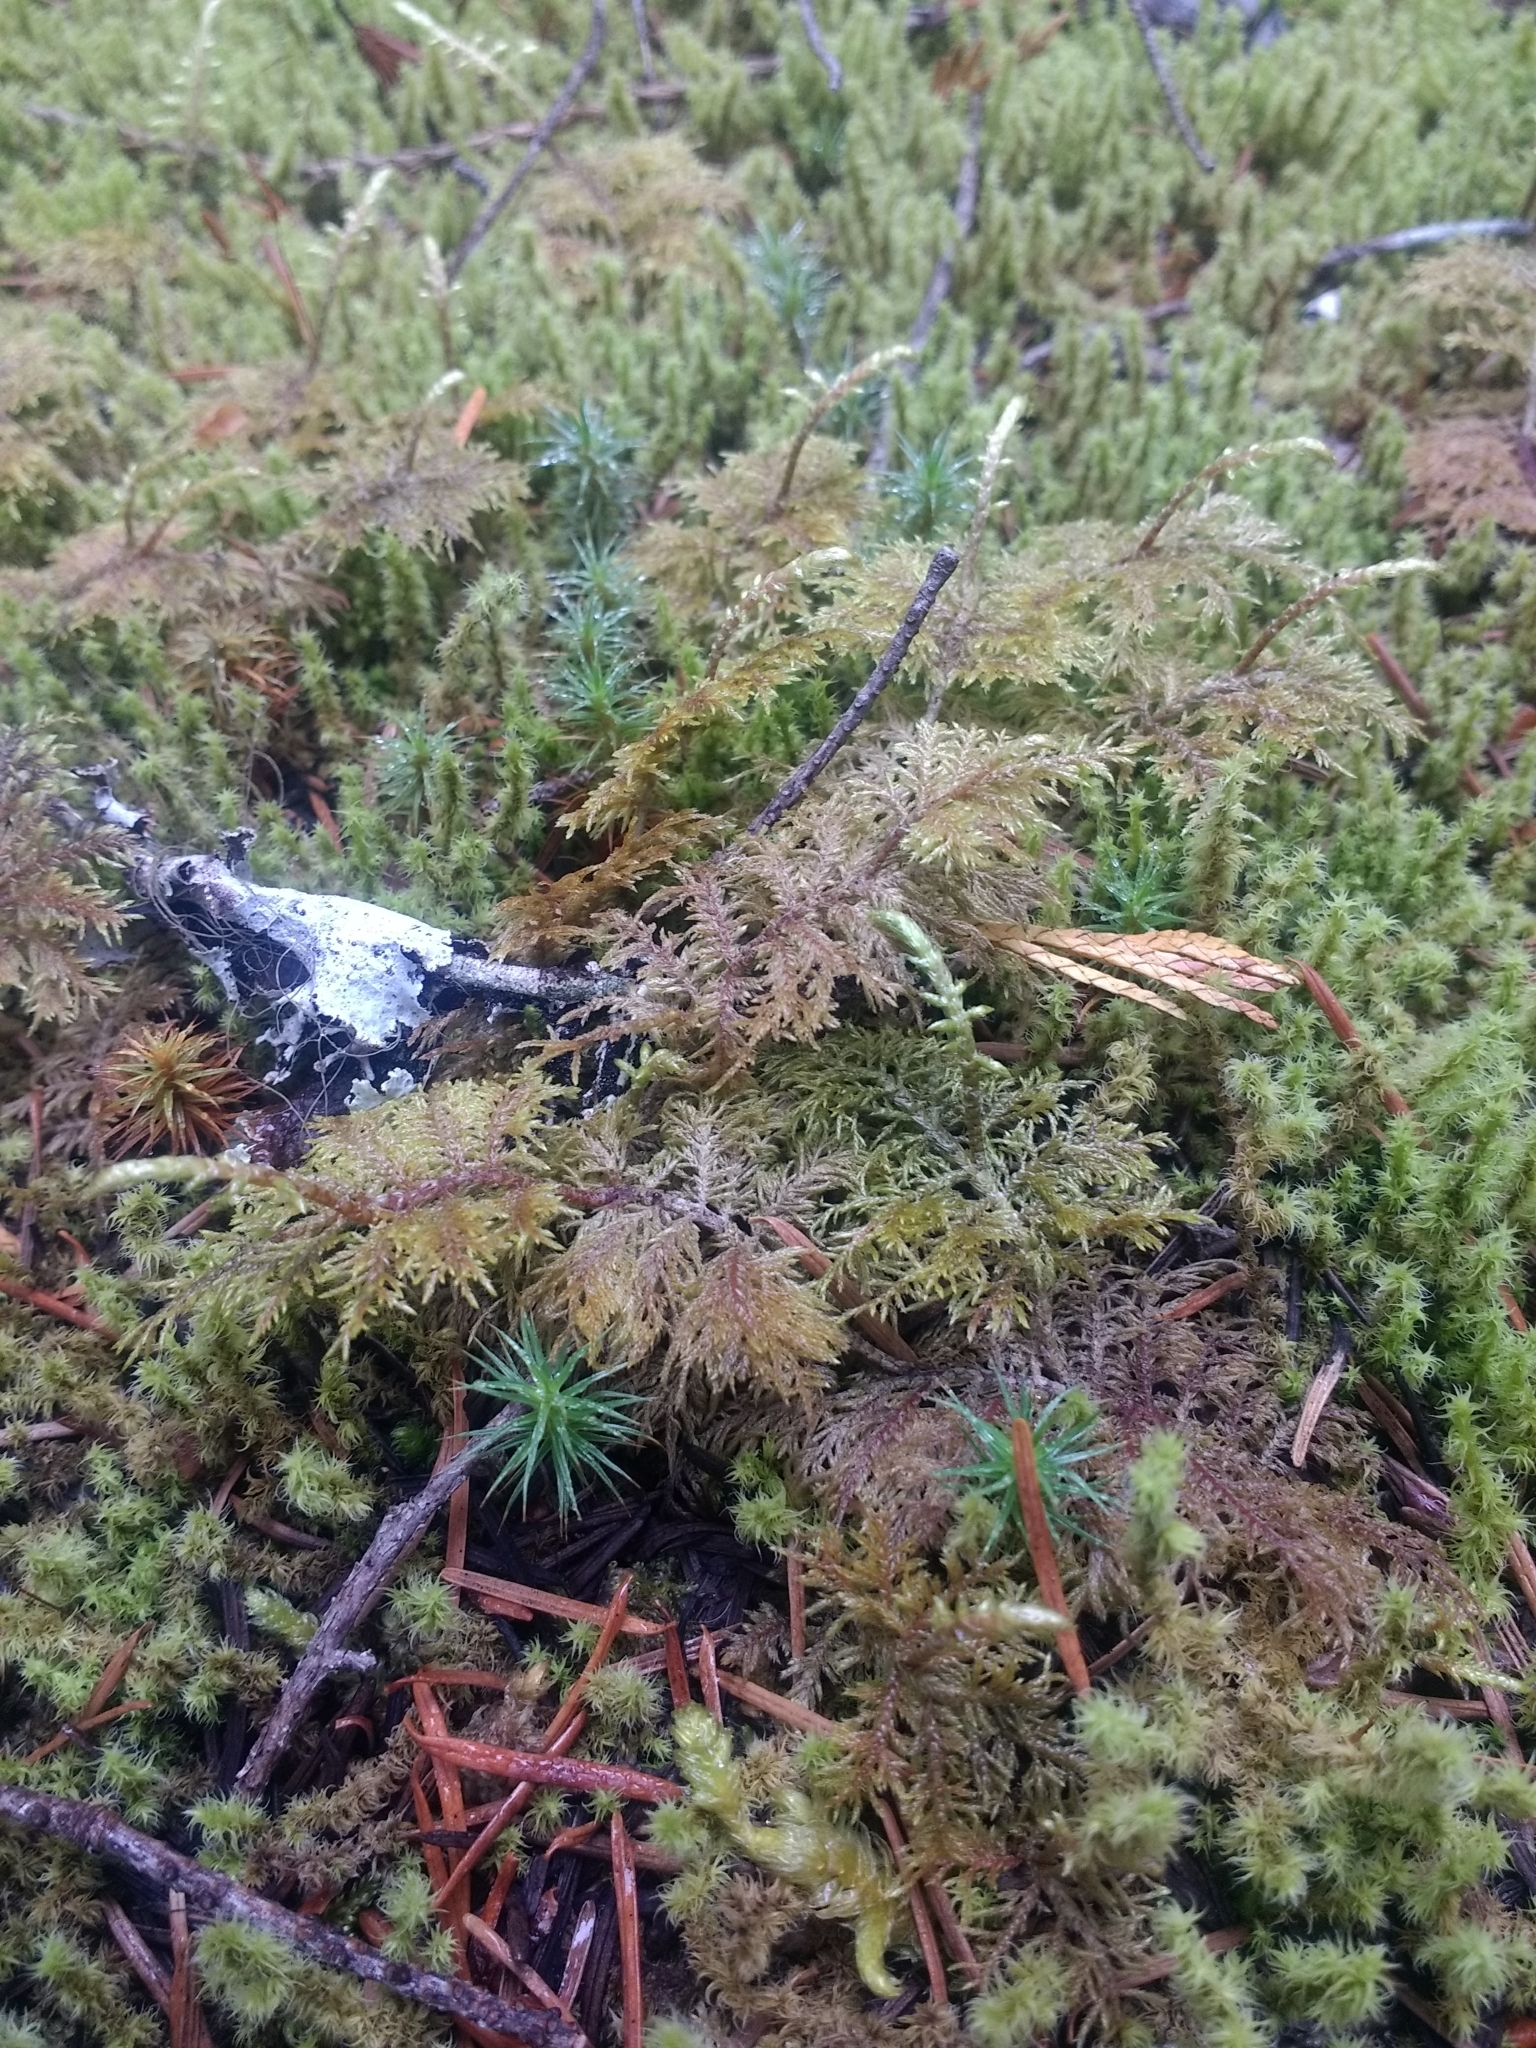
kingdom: Plantae
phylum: Bryophyta
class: Bryopsida
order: Hypnales
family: Hylocomiaceae
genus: Hylocomium
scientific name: Hylocomium splendens
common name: Stairstep moss
